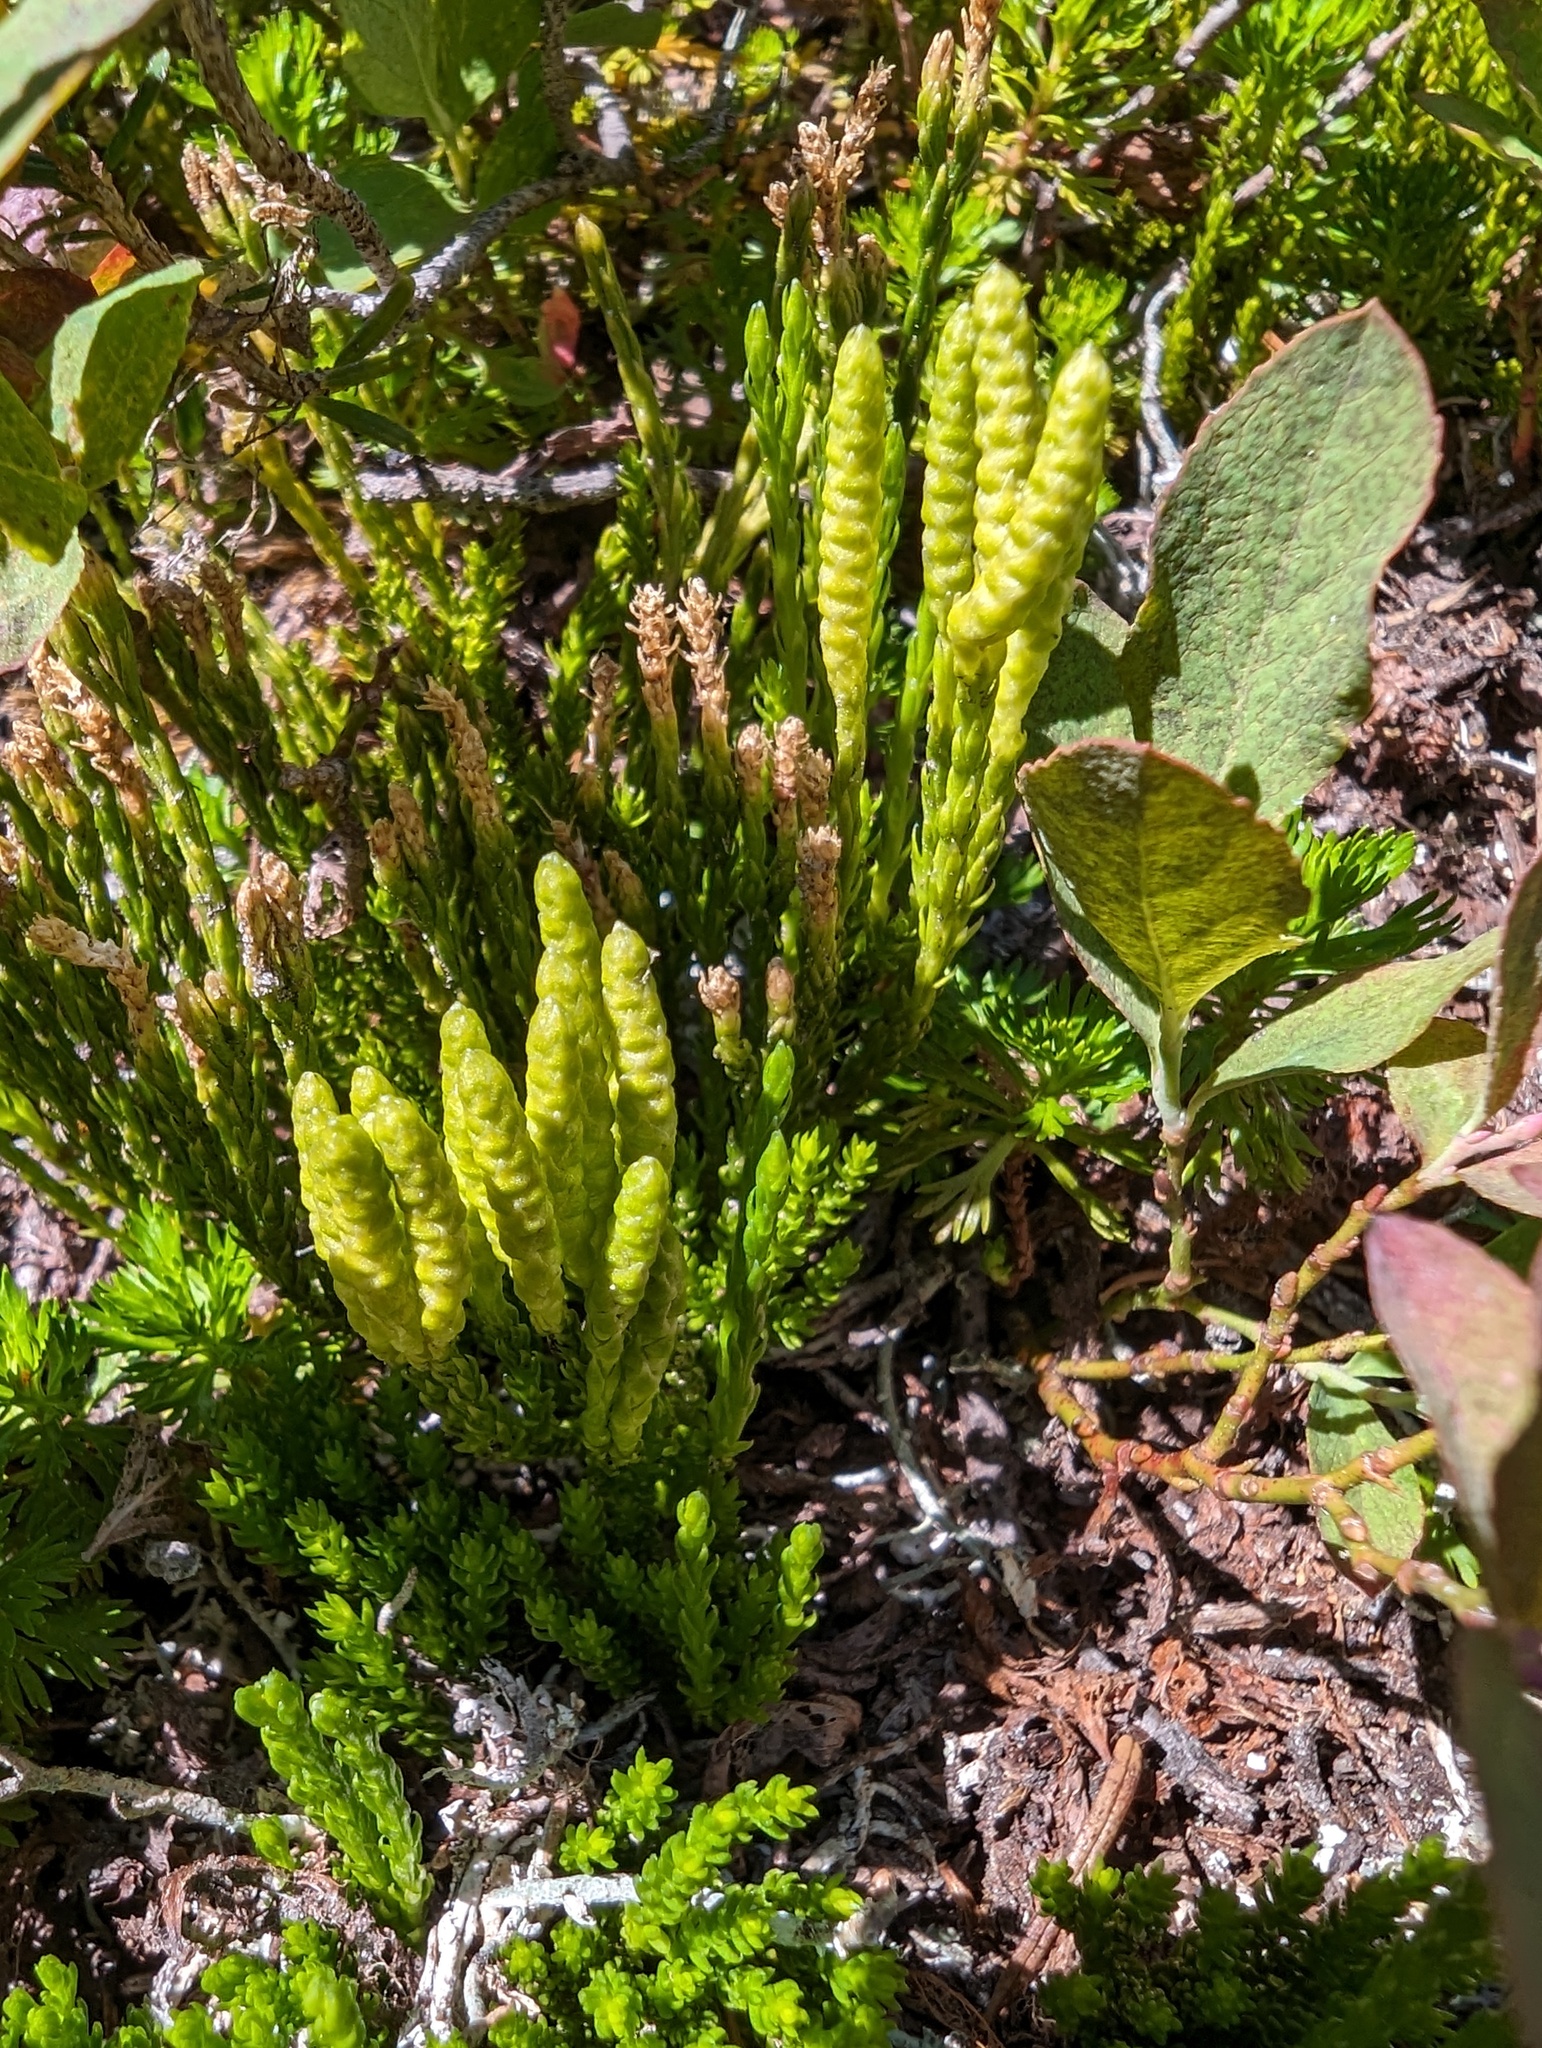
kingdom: Plantae
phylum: Tracheophyta
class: Lycopodiopsida
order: Lycopodiales
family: Lycopodiaceae
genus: Diphasiastrum
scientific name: Diphasiastrum sitchense
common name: Alaska clubmoss
